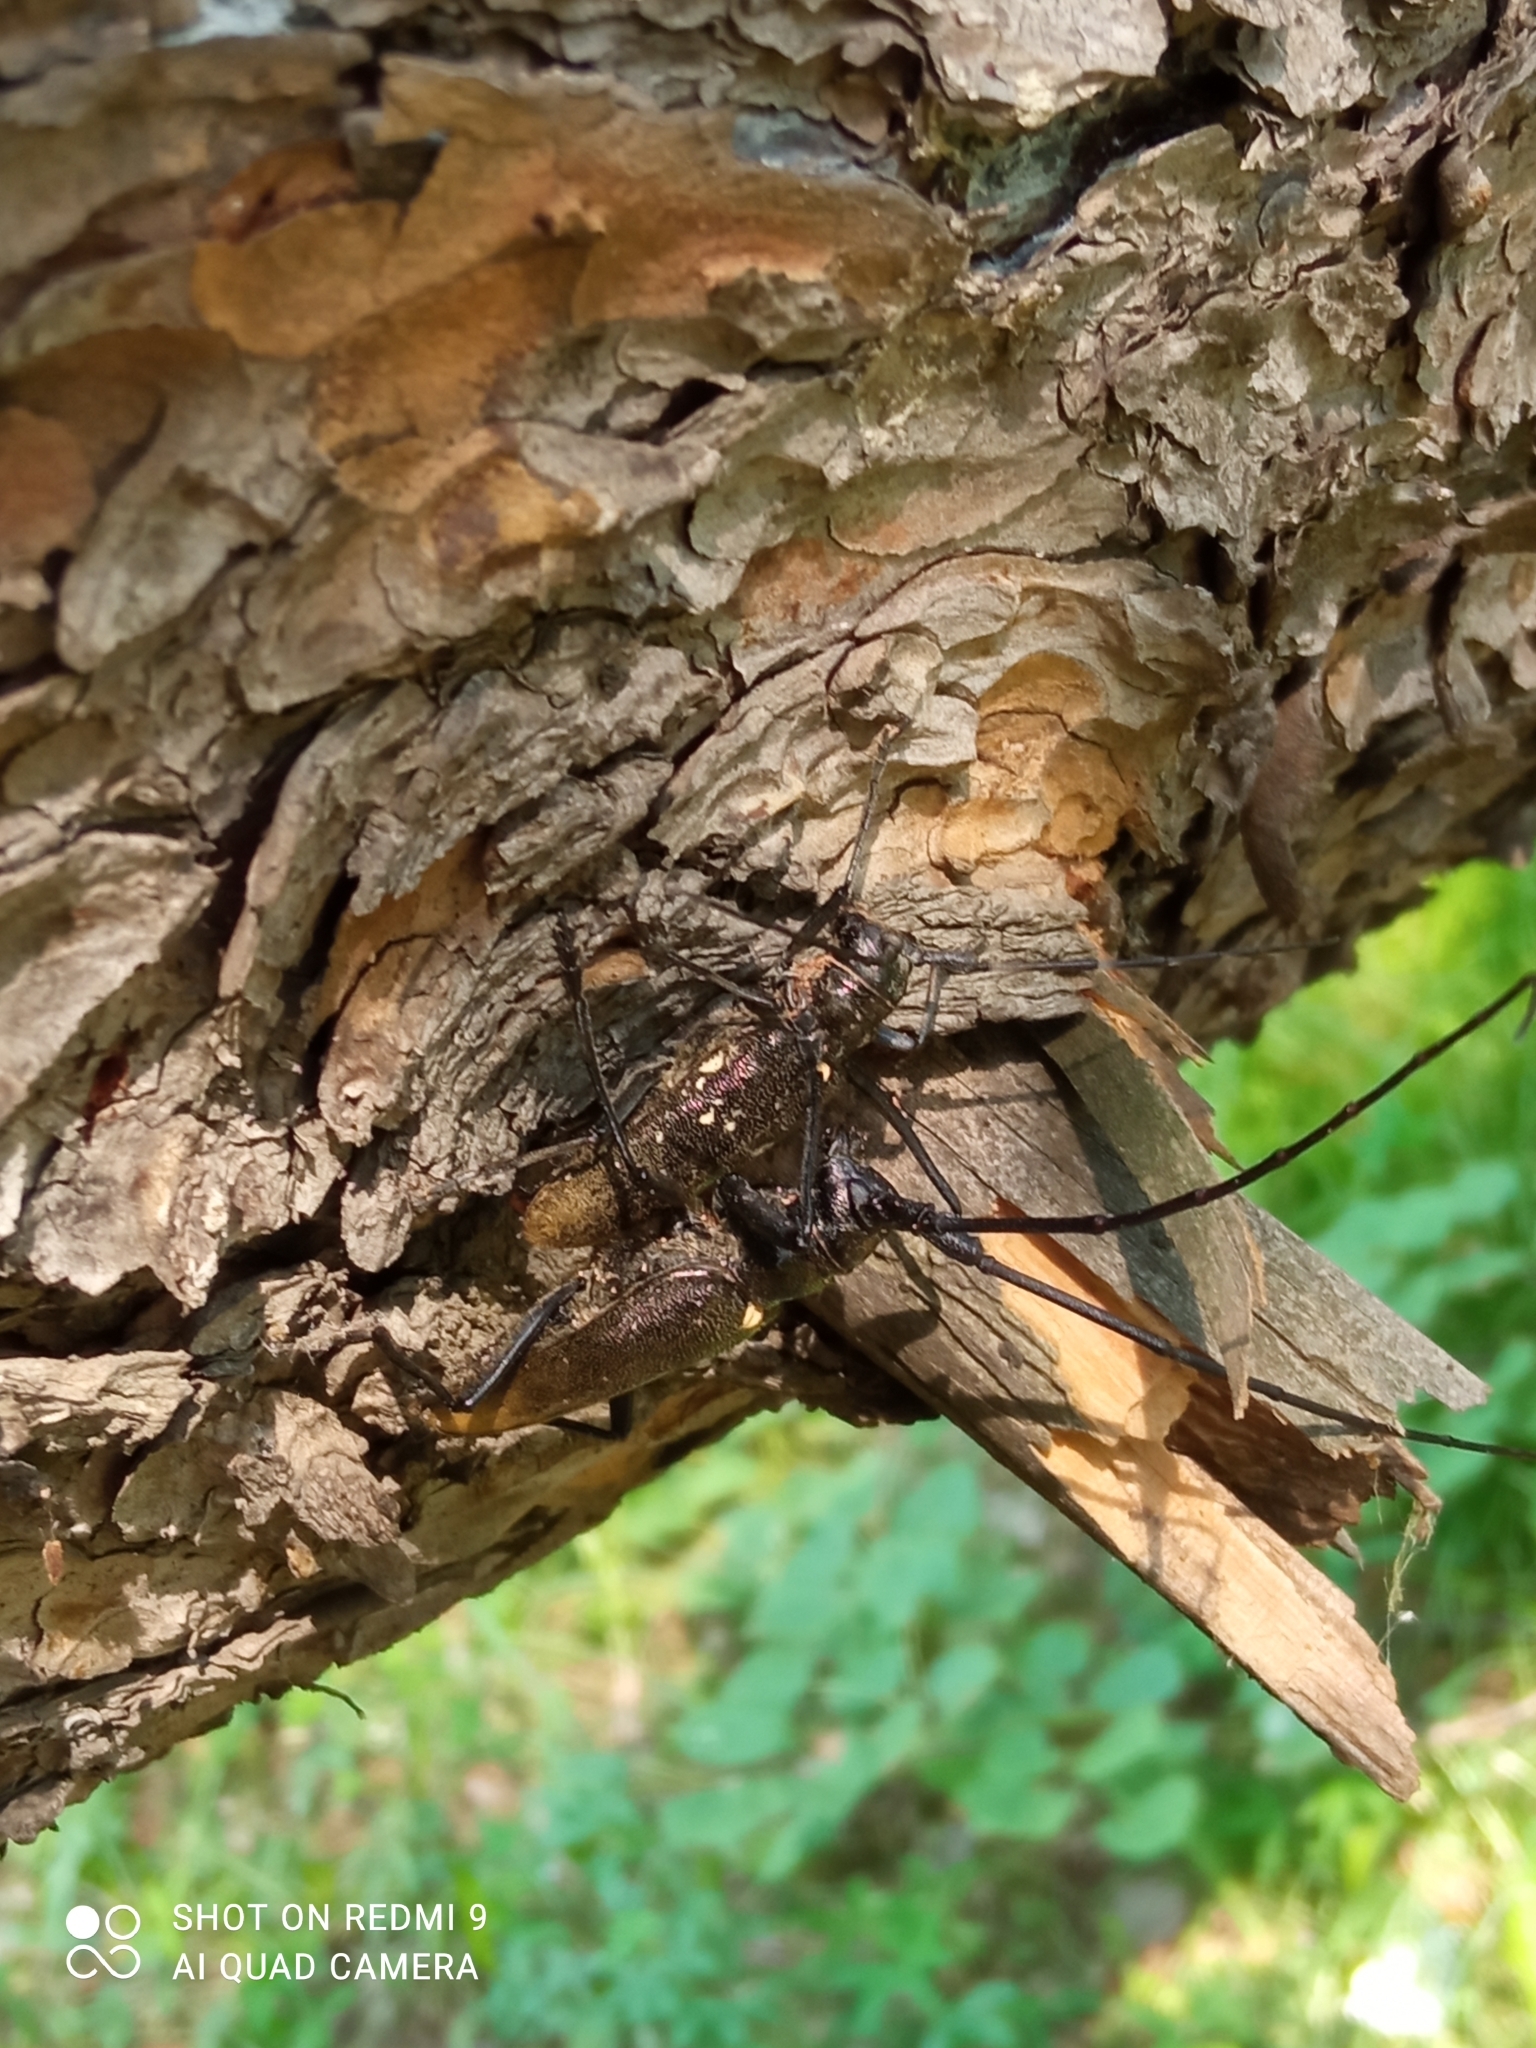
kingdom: Animalia
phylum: Arthropoda
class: Insecta
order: Coleoptera
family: Cerambycidae
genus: Monochamus
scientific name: Monochamus sartor
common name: Pine sawyer
